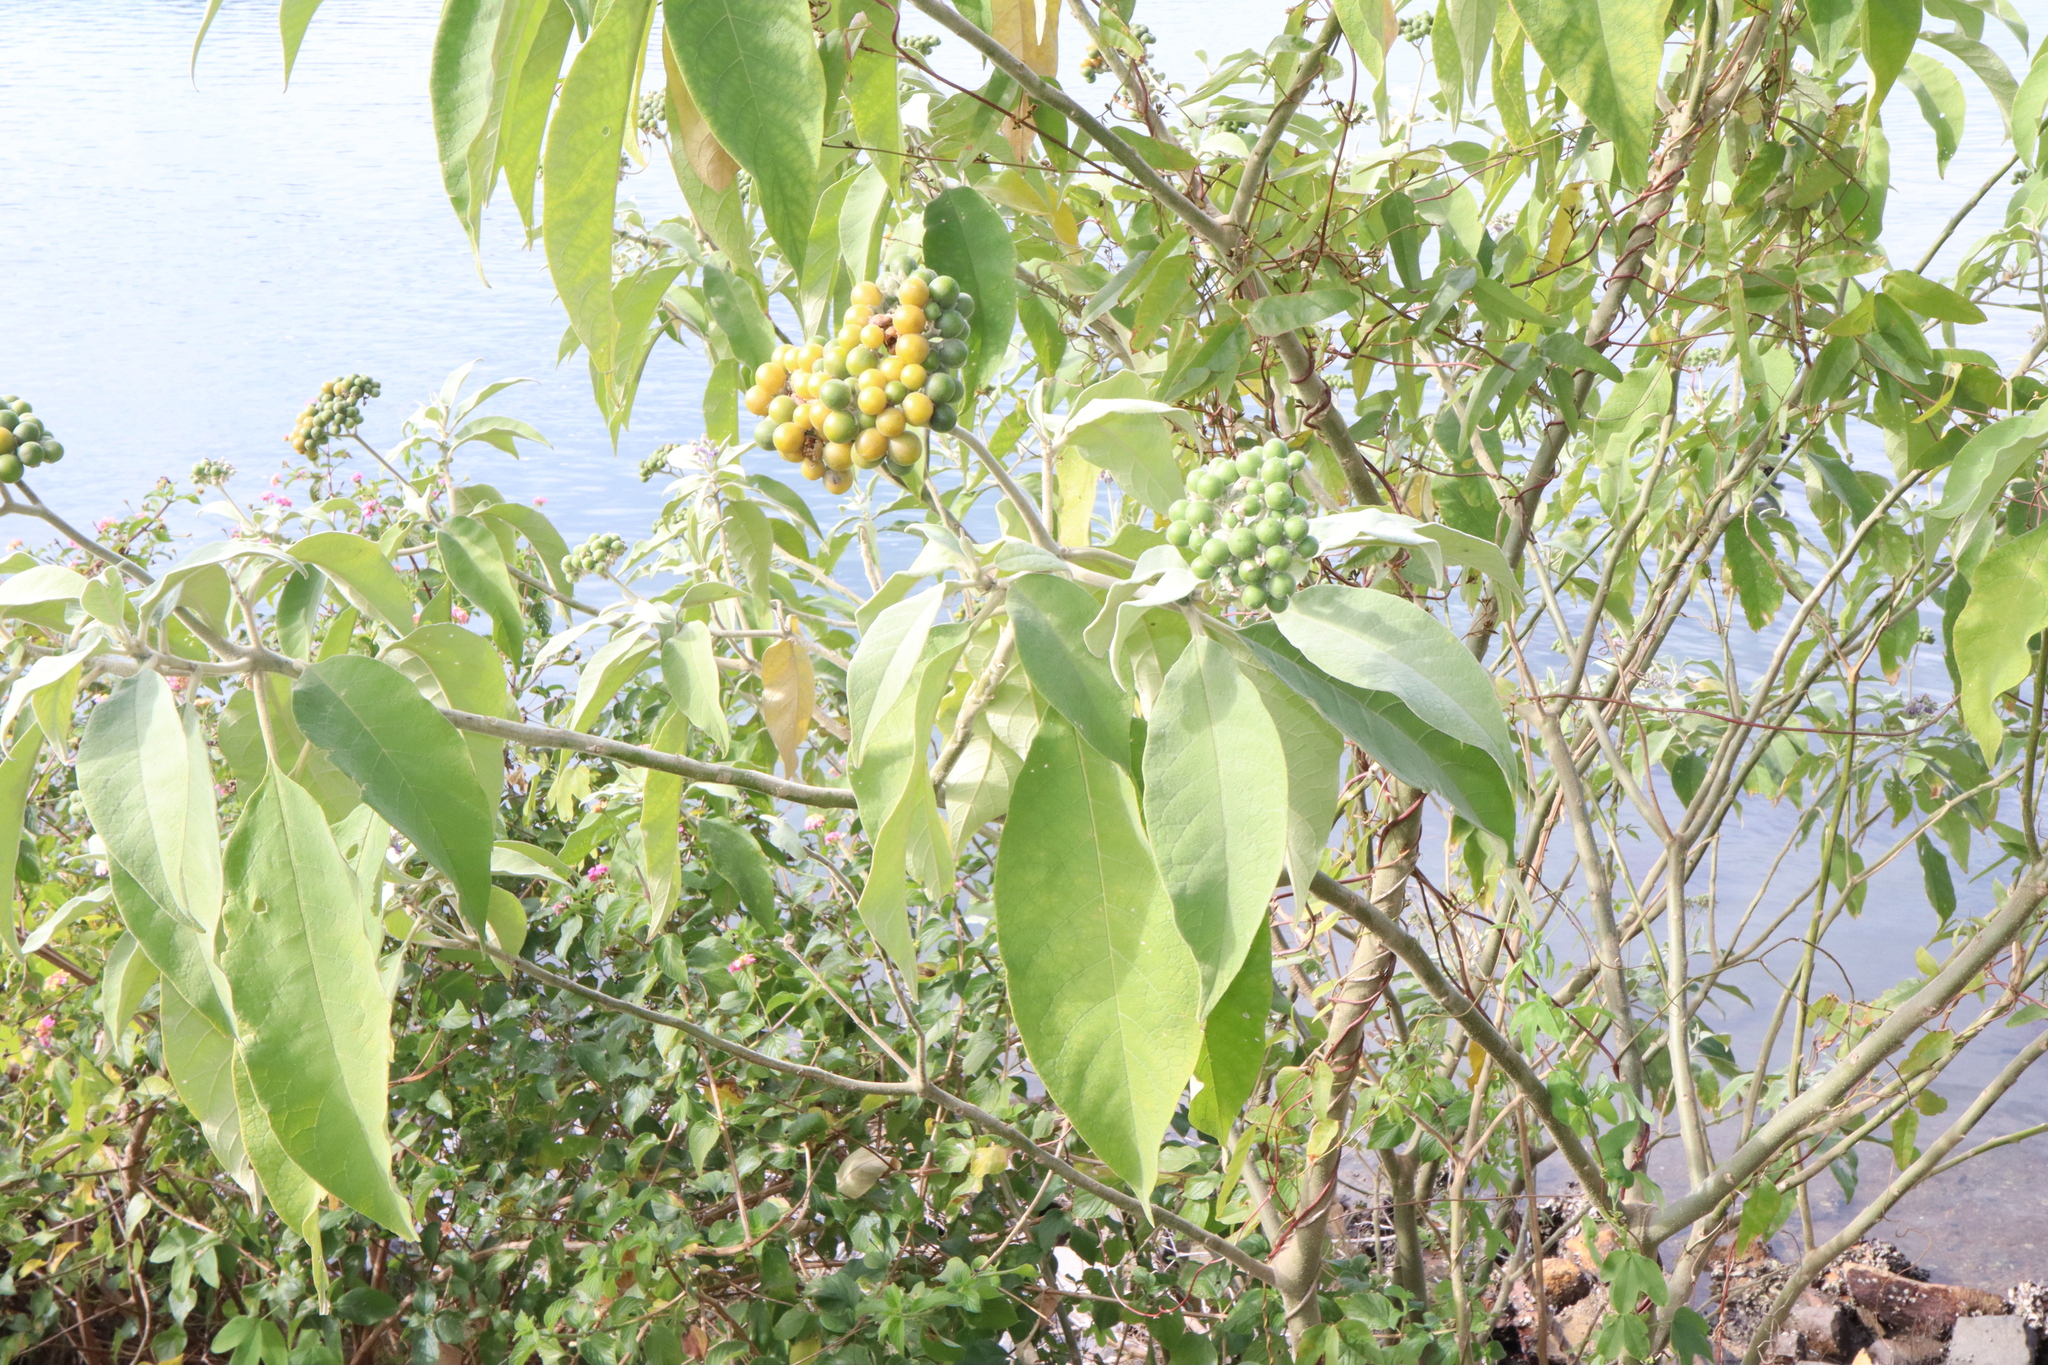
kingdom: Plantae
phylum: Tracheophyta
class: Magnoliopsida
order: Solanales
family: Solanaceae
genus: Solanum
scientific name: Solanum mauritianum
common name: Earleaf nightshade
